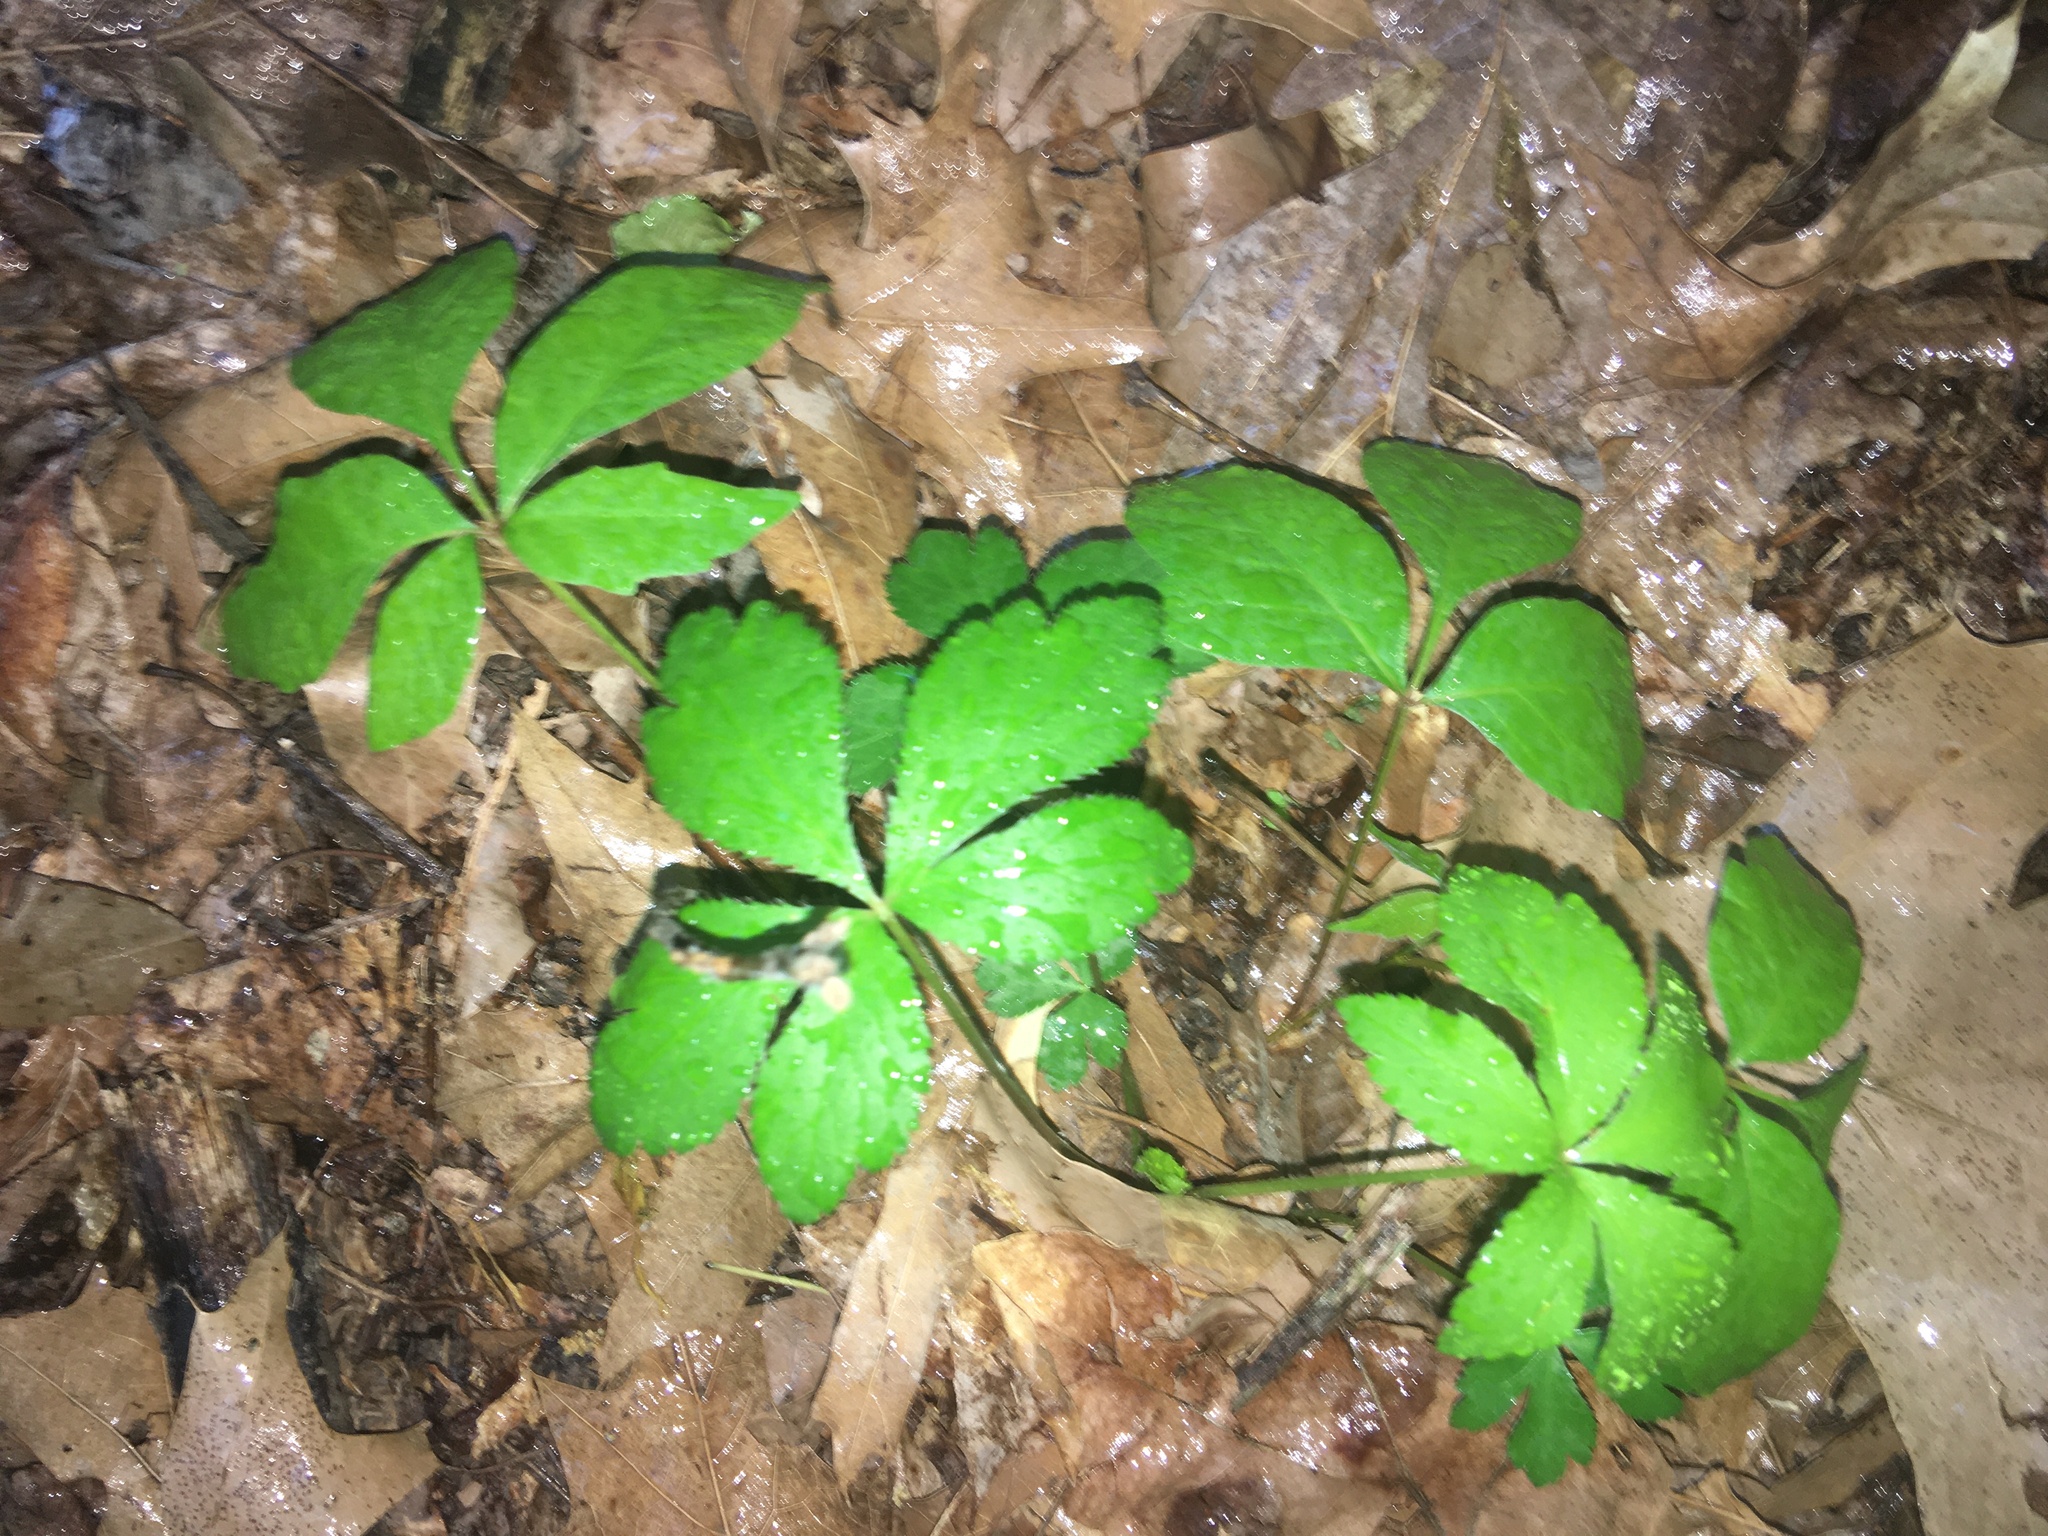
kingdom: Plantae
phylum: Tracheophyta
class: Magnoliopsida
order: Apiales
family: Apiaceae
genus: Sanicula
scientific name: Sanicula canadensis
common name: Canada sanicle
